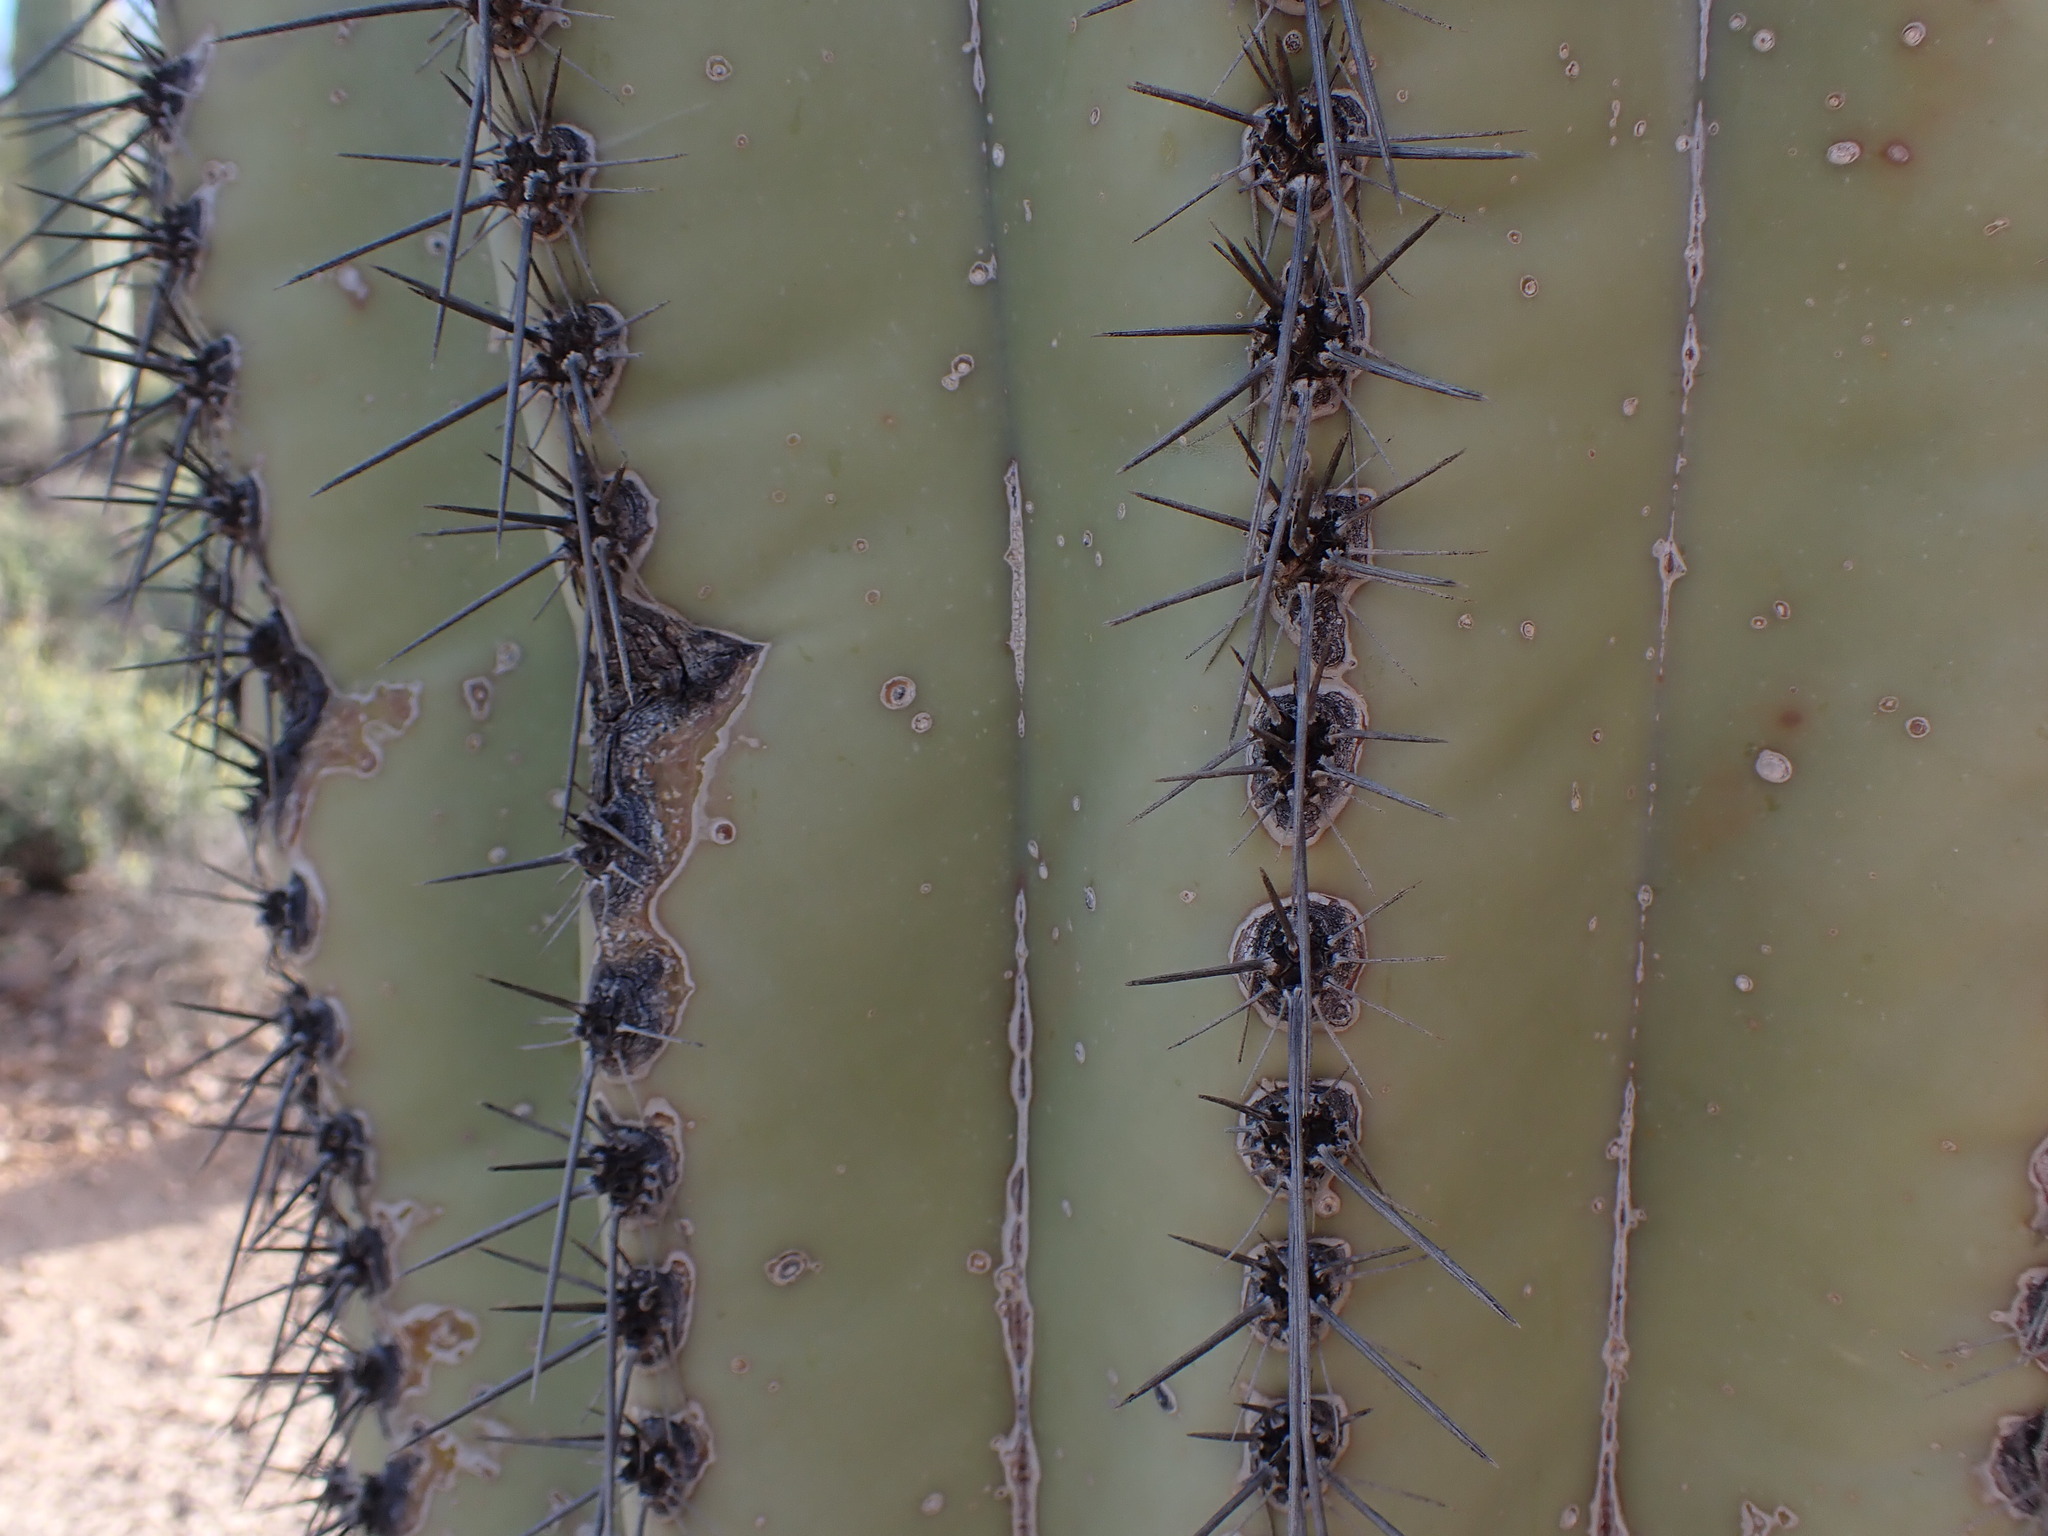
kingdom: Plantae
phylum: Tracheophyta
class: Magnoliopsida
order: Caryophyllales
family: Cactaceae
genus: Carnegiea
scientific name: Carnegiea gigantea
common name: Saguaro
